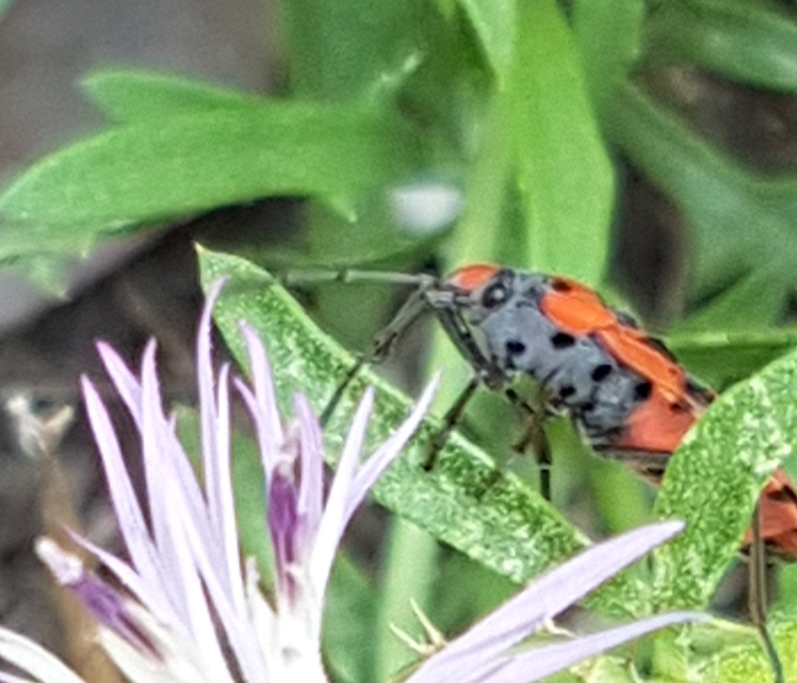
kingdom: Animalia
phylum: Arthropoda
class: Insecta
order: Hemiptera
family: Lygaeidae
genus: Lygaeus
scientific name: Lygaeus
